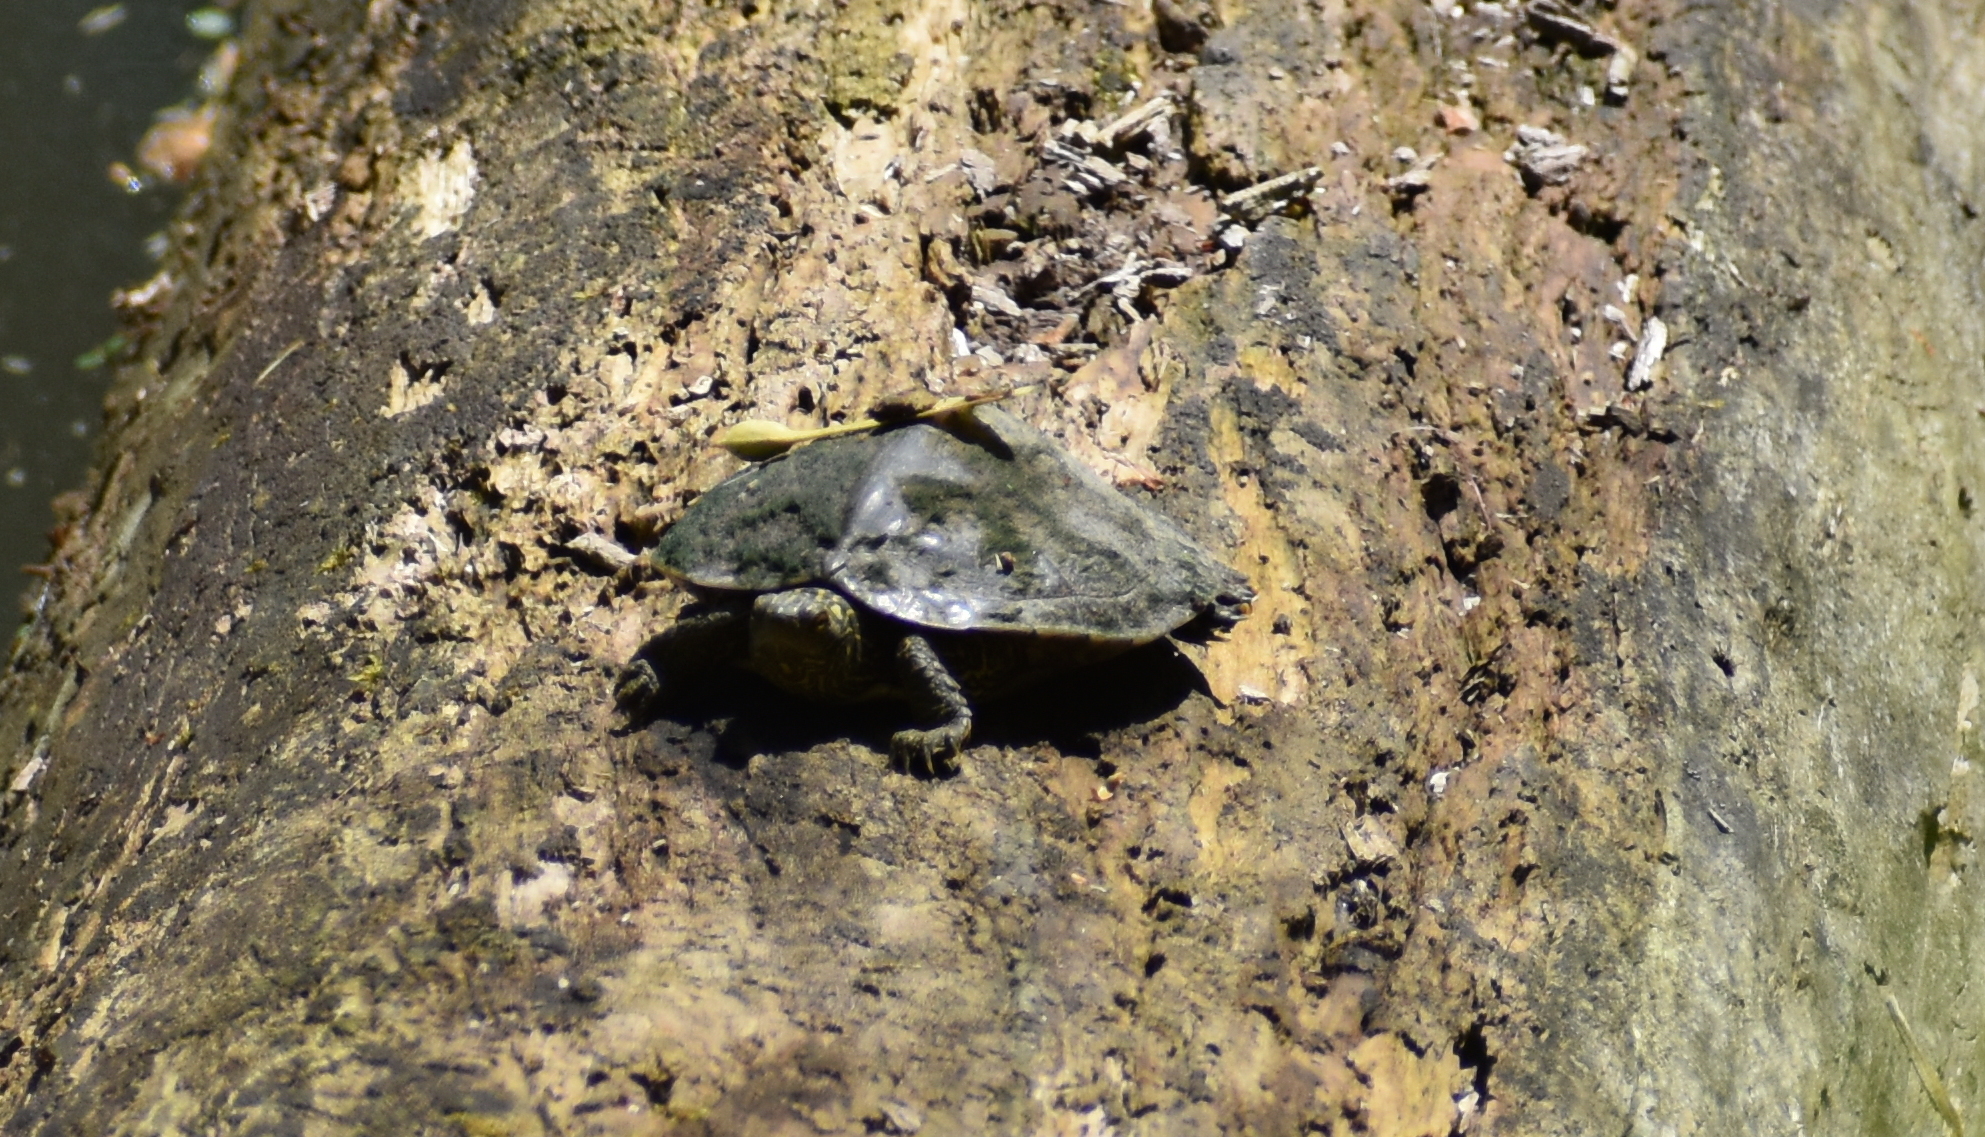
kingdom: Animalia
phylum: Chordata
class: Testudines
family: Emydidae
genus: Graptemys
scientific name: Graptemys geographica
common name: Common map turtle
